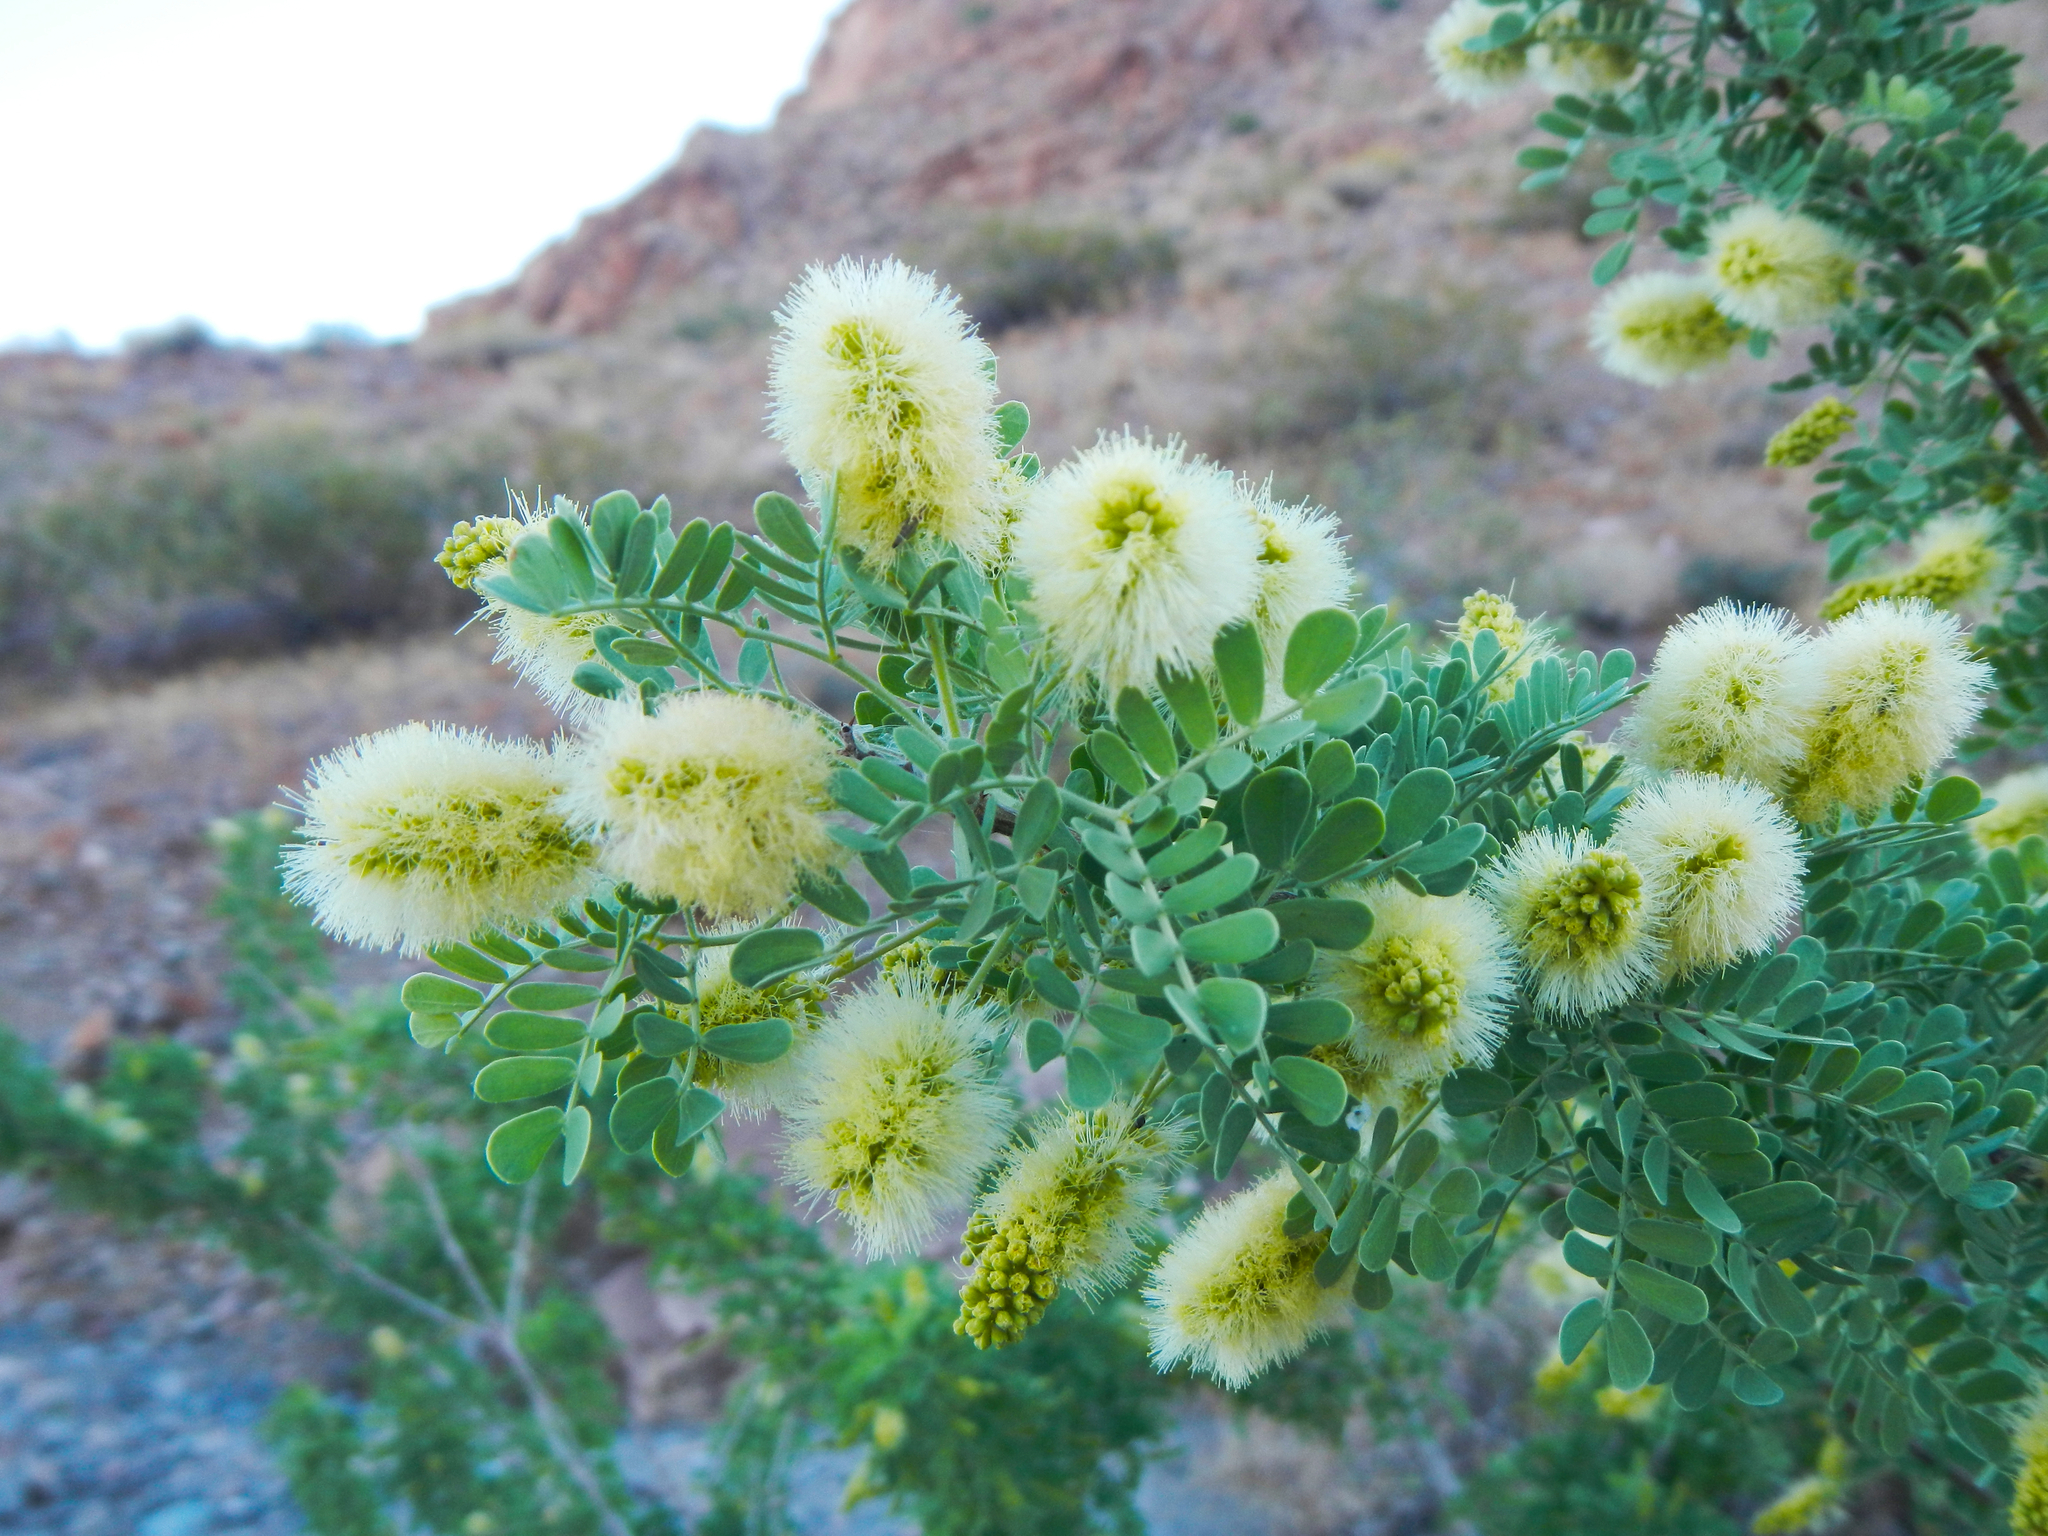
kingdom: Plantae
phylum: Tracheophyta
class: Magnoliopsida
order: Fabales
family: Fabaceae
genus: Senegalia
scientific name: Senegalia greggii
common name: Texas-mimosa
